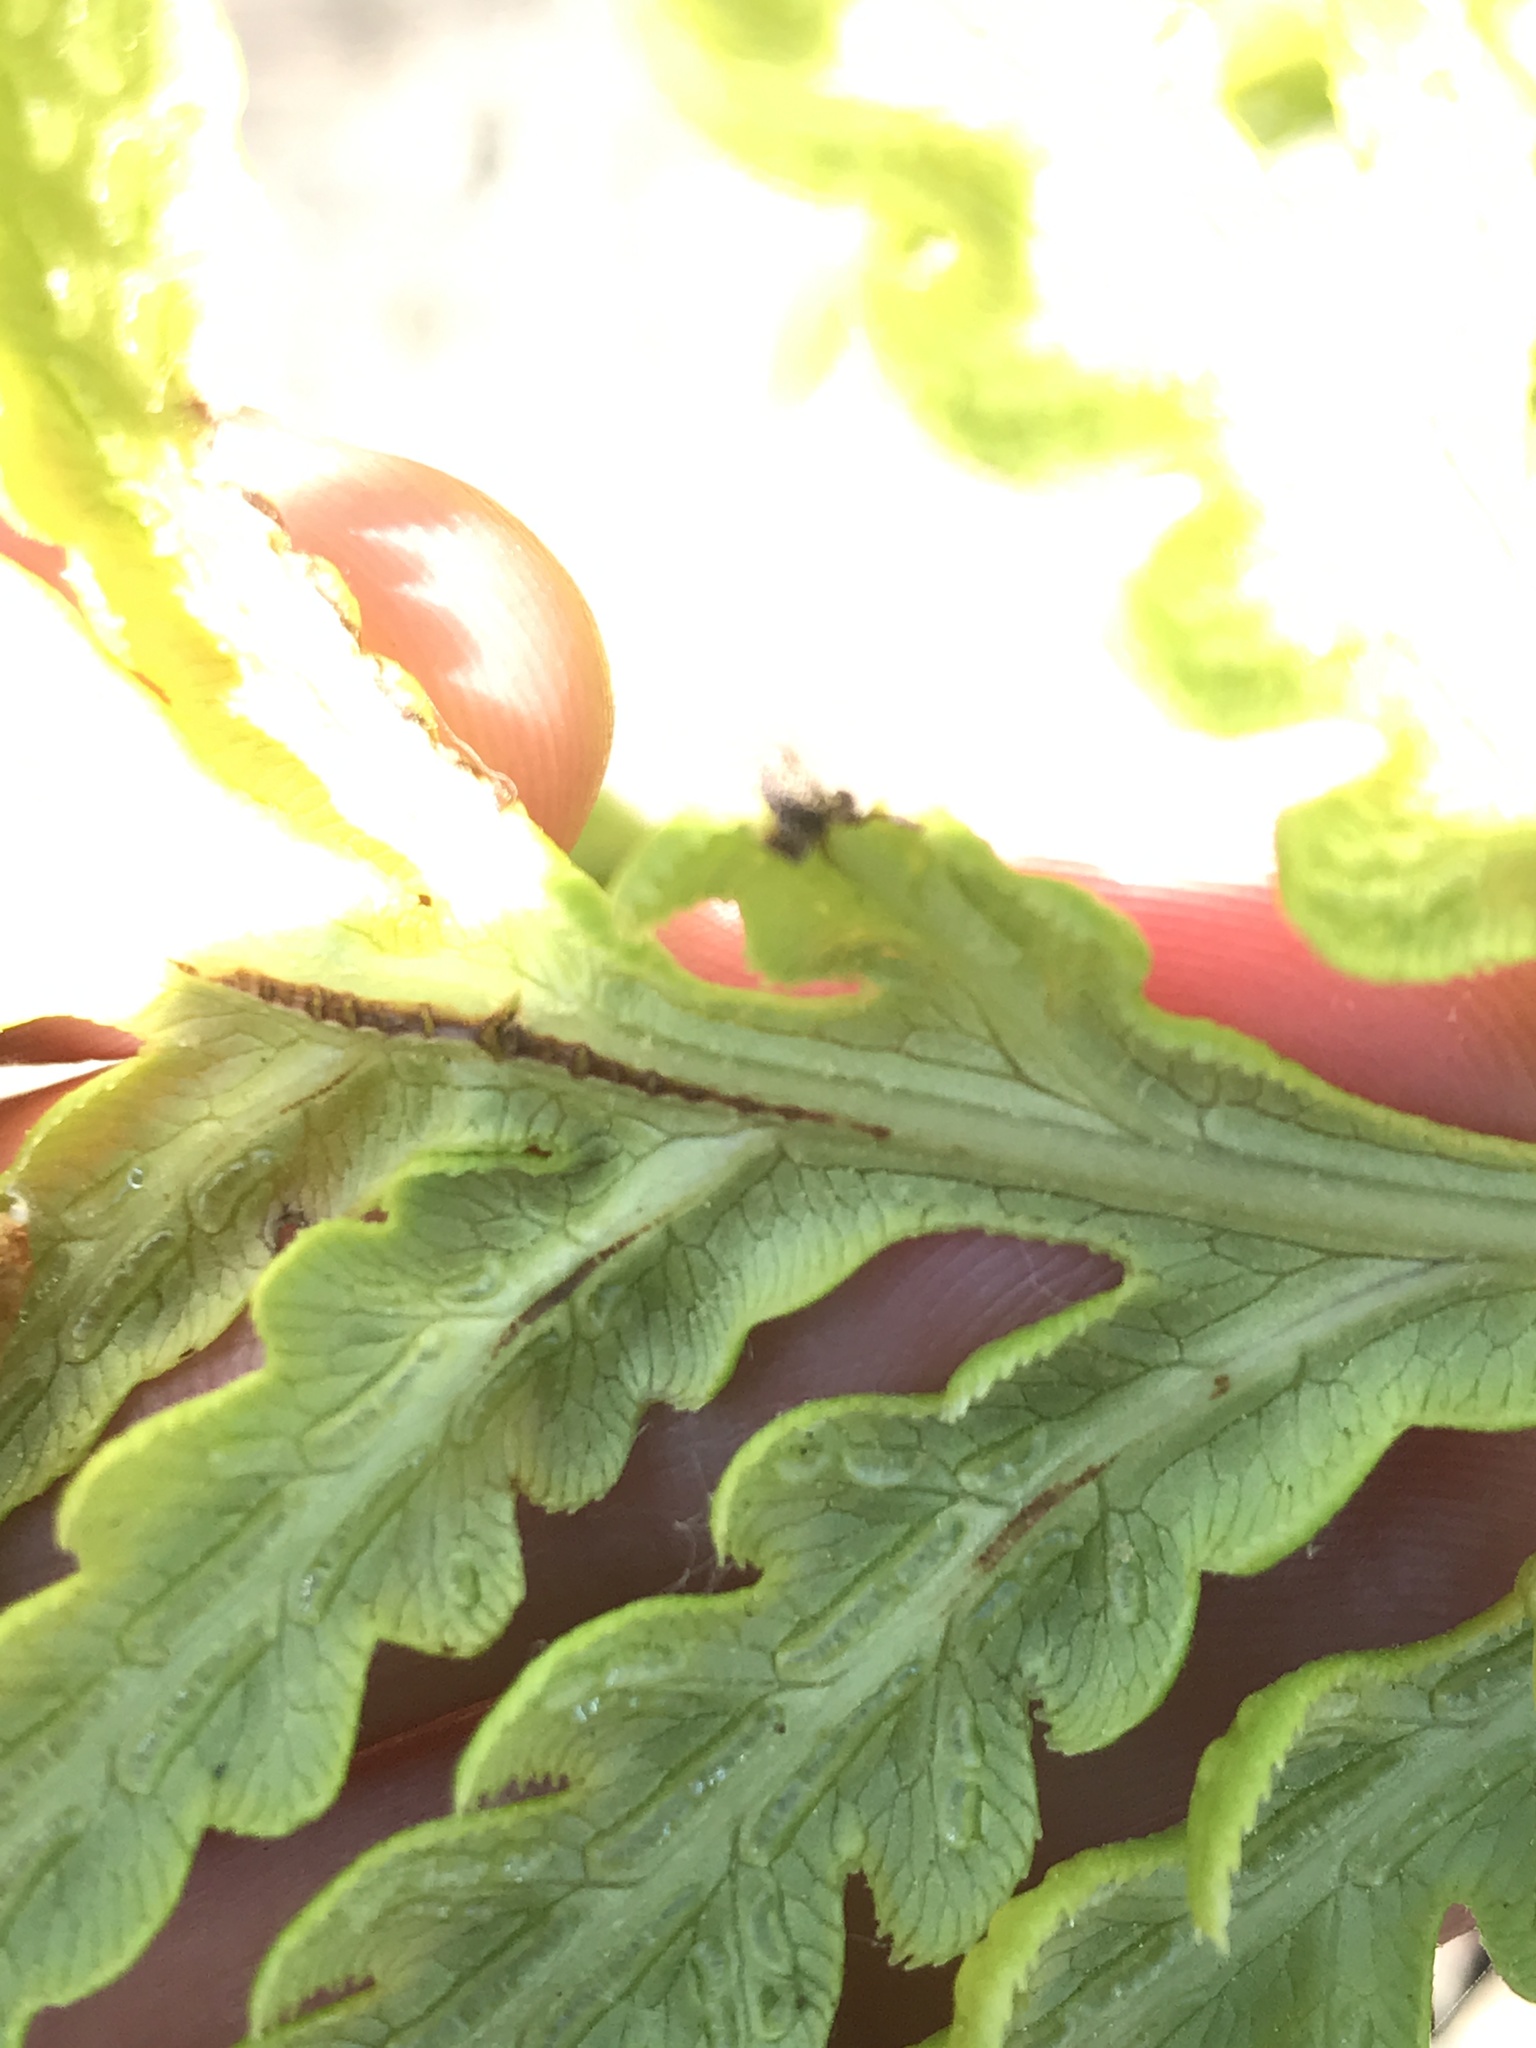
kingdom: Plantae
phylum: Tracheophyta
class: Polypodiopsida
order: Polypodiales
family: Blechnaceae
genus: Woodwardia
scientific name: Woodwardia fimbriata
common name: Giant chain fern
